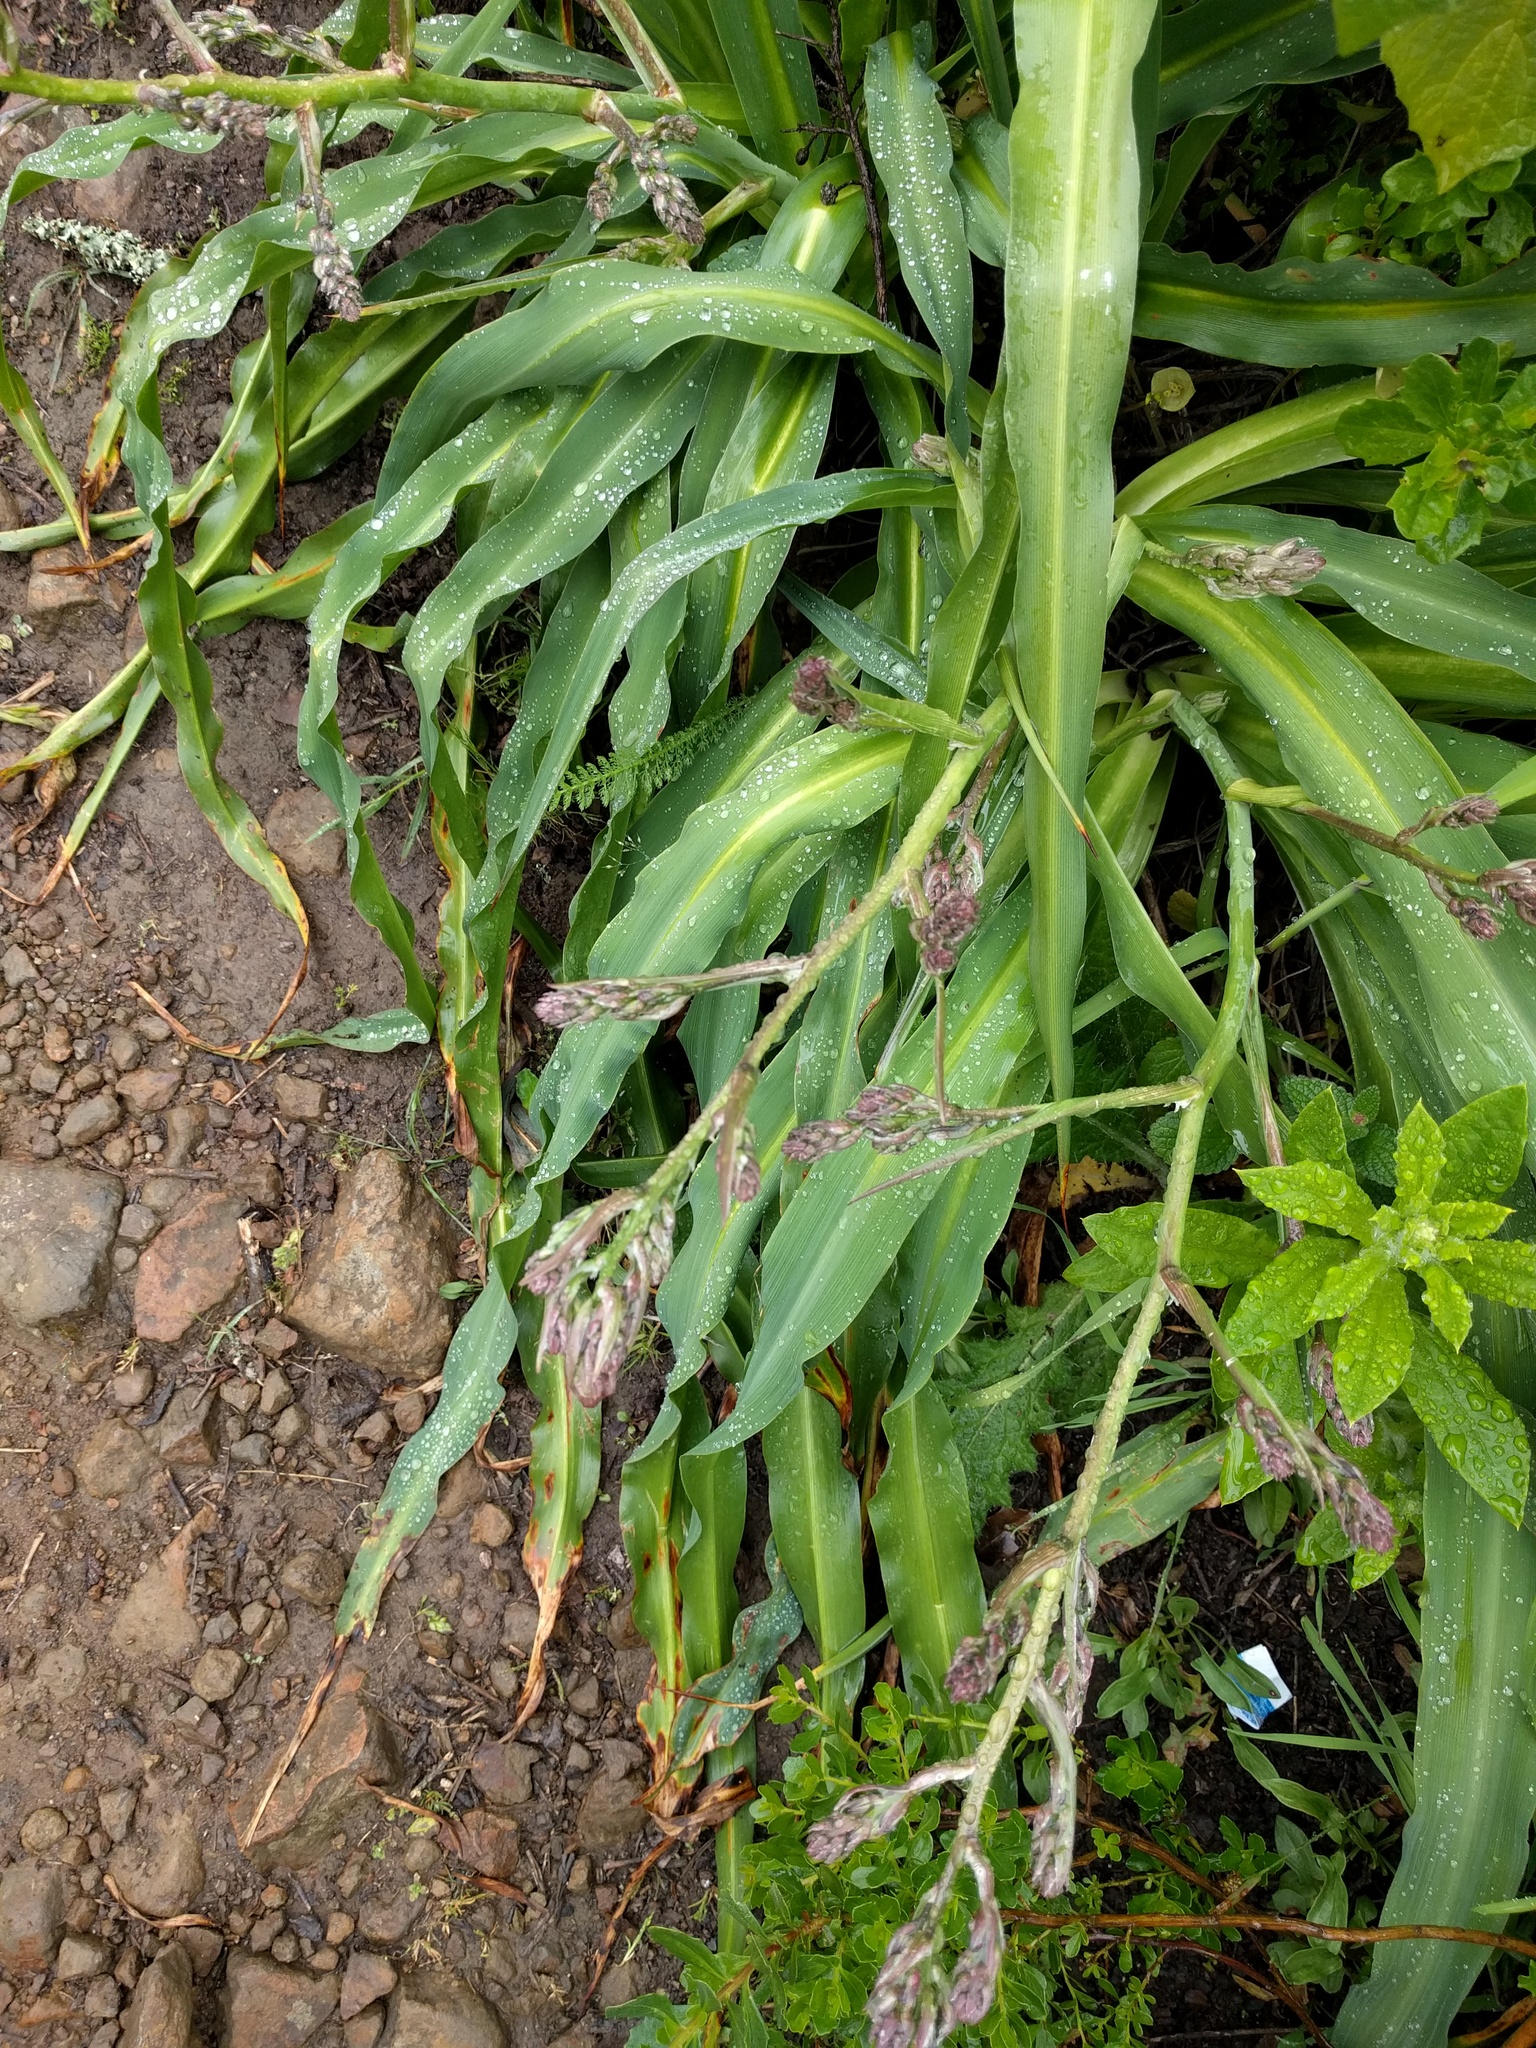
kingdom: Plantae
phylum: Tracheophyta
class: Liliopsida
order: Asparagales
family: Asparagaceae
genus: Chlorogalum
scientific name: Chlorogalum pomeridianum
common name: Amole
